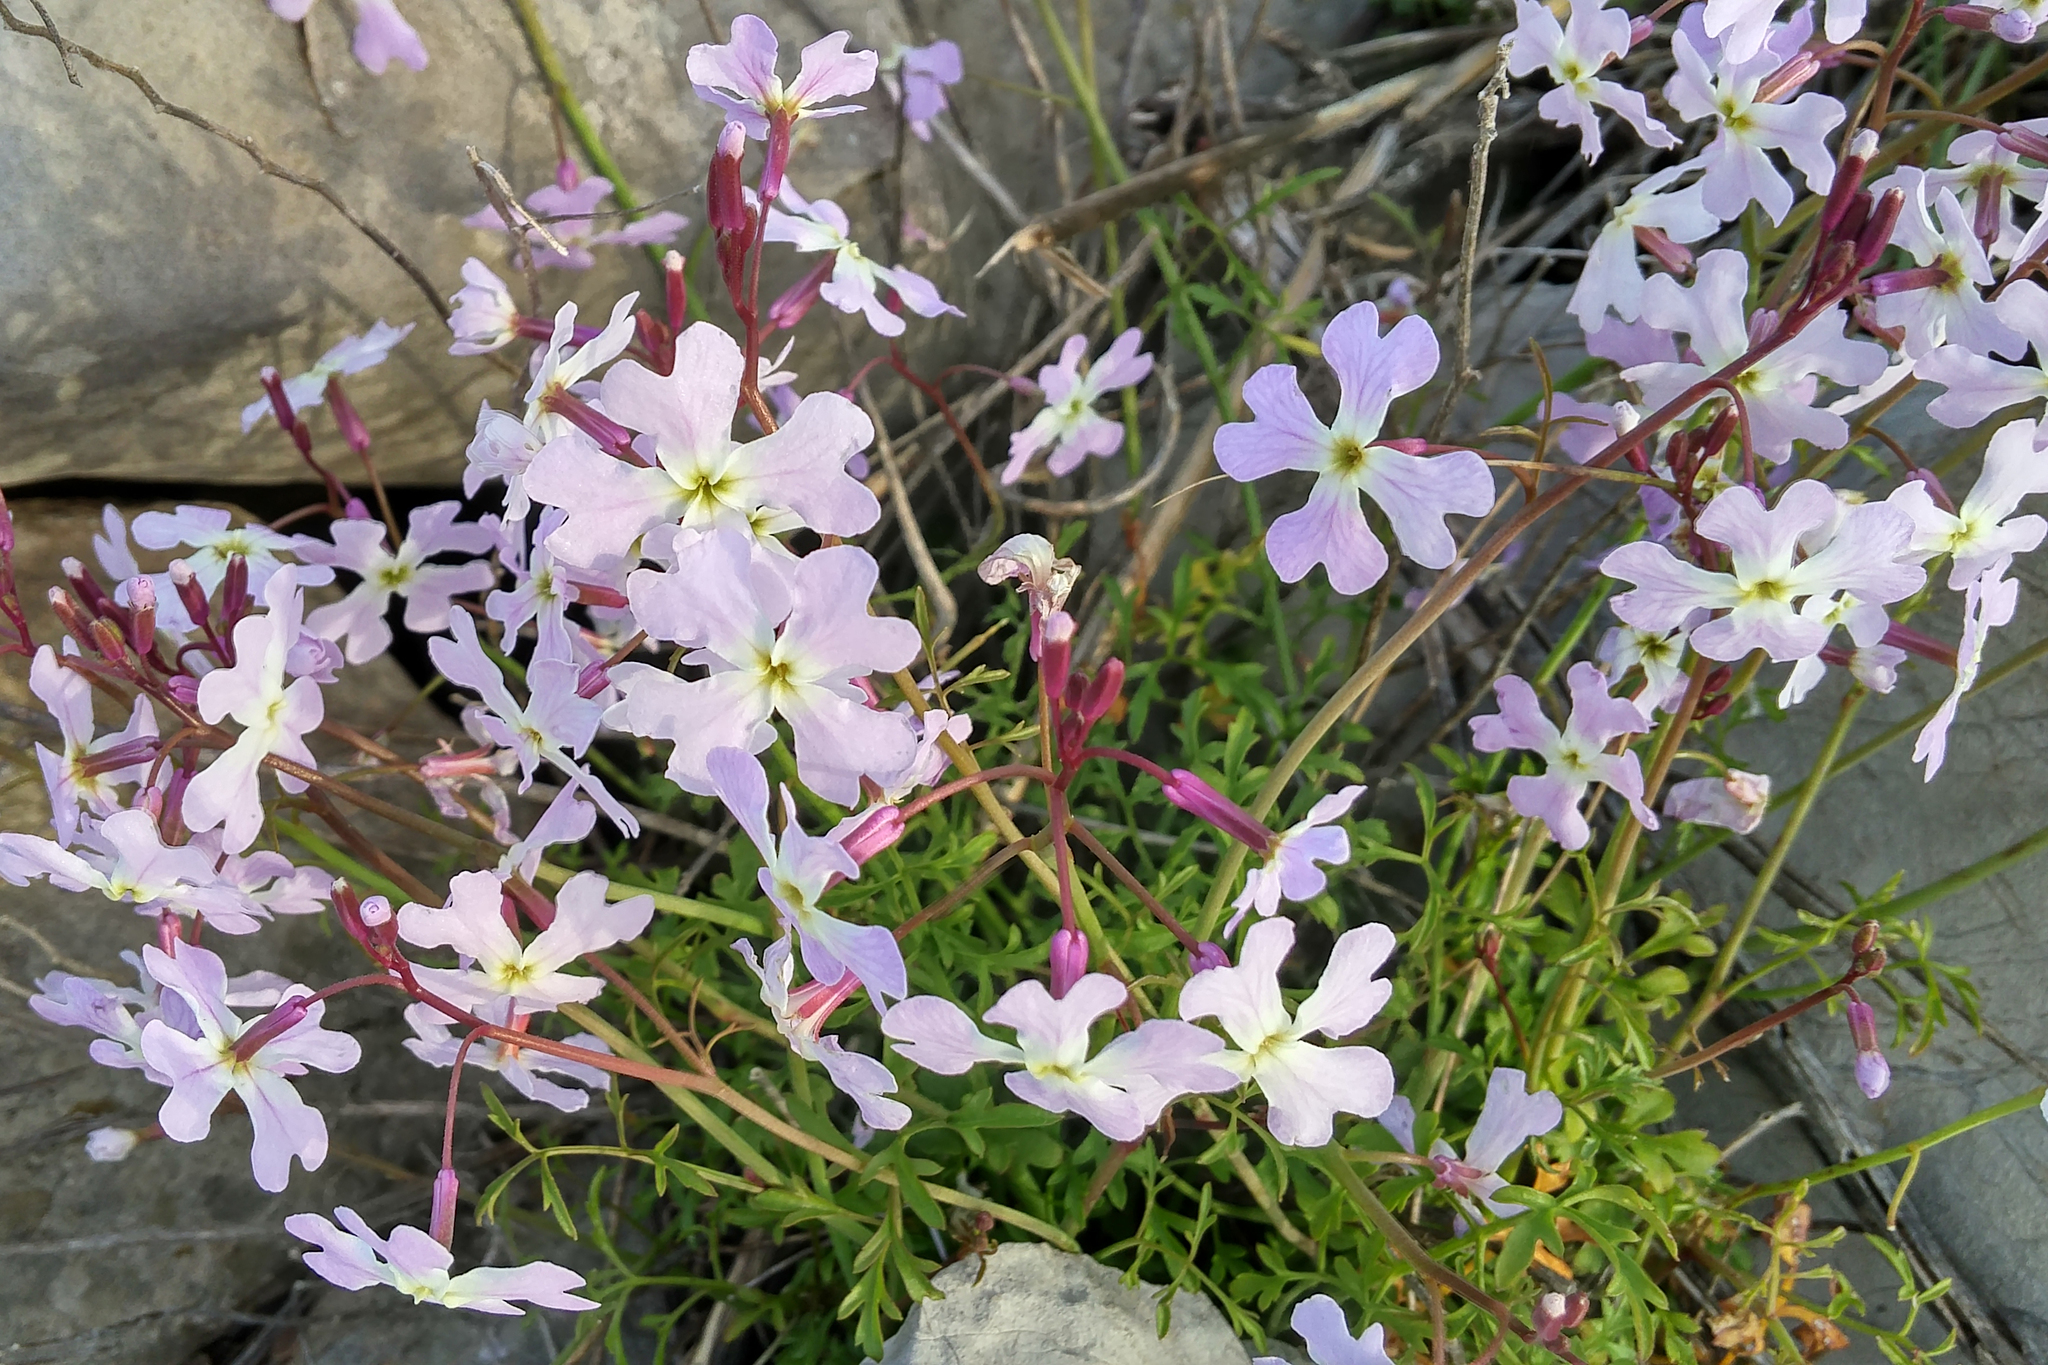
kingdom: Plantae
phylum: Tracheophyta
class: Magnoliopsida
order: Brassicales
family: Brassicaceae
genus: Ricotia
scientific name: Ricotia lunaria
